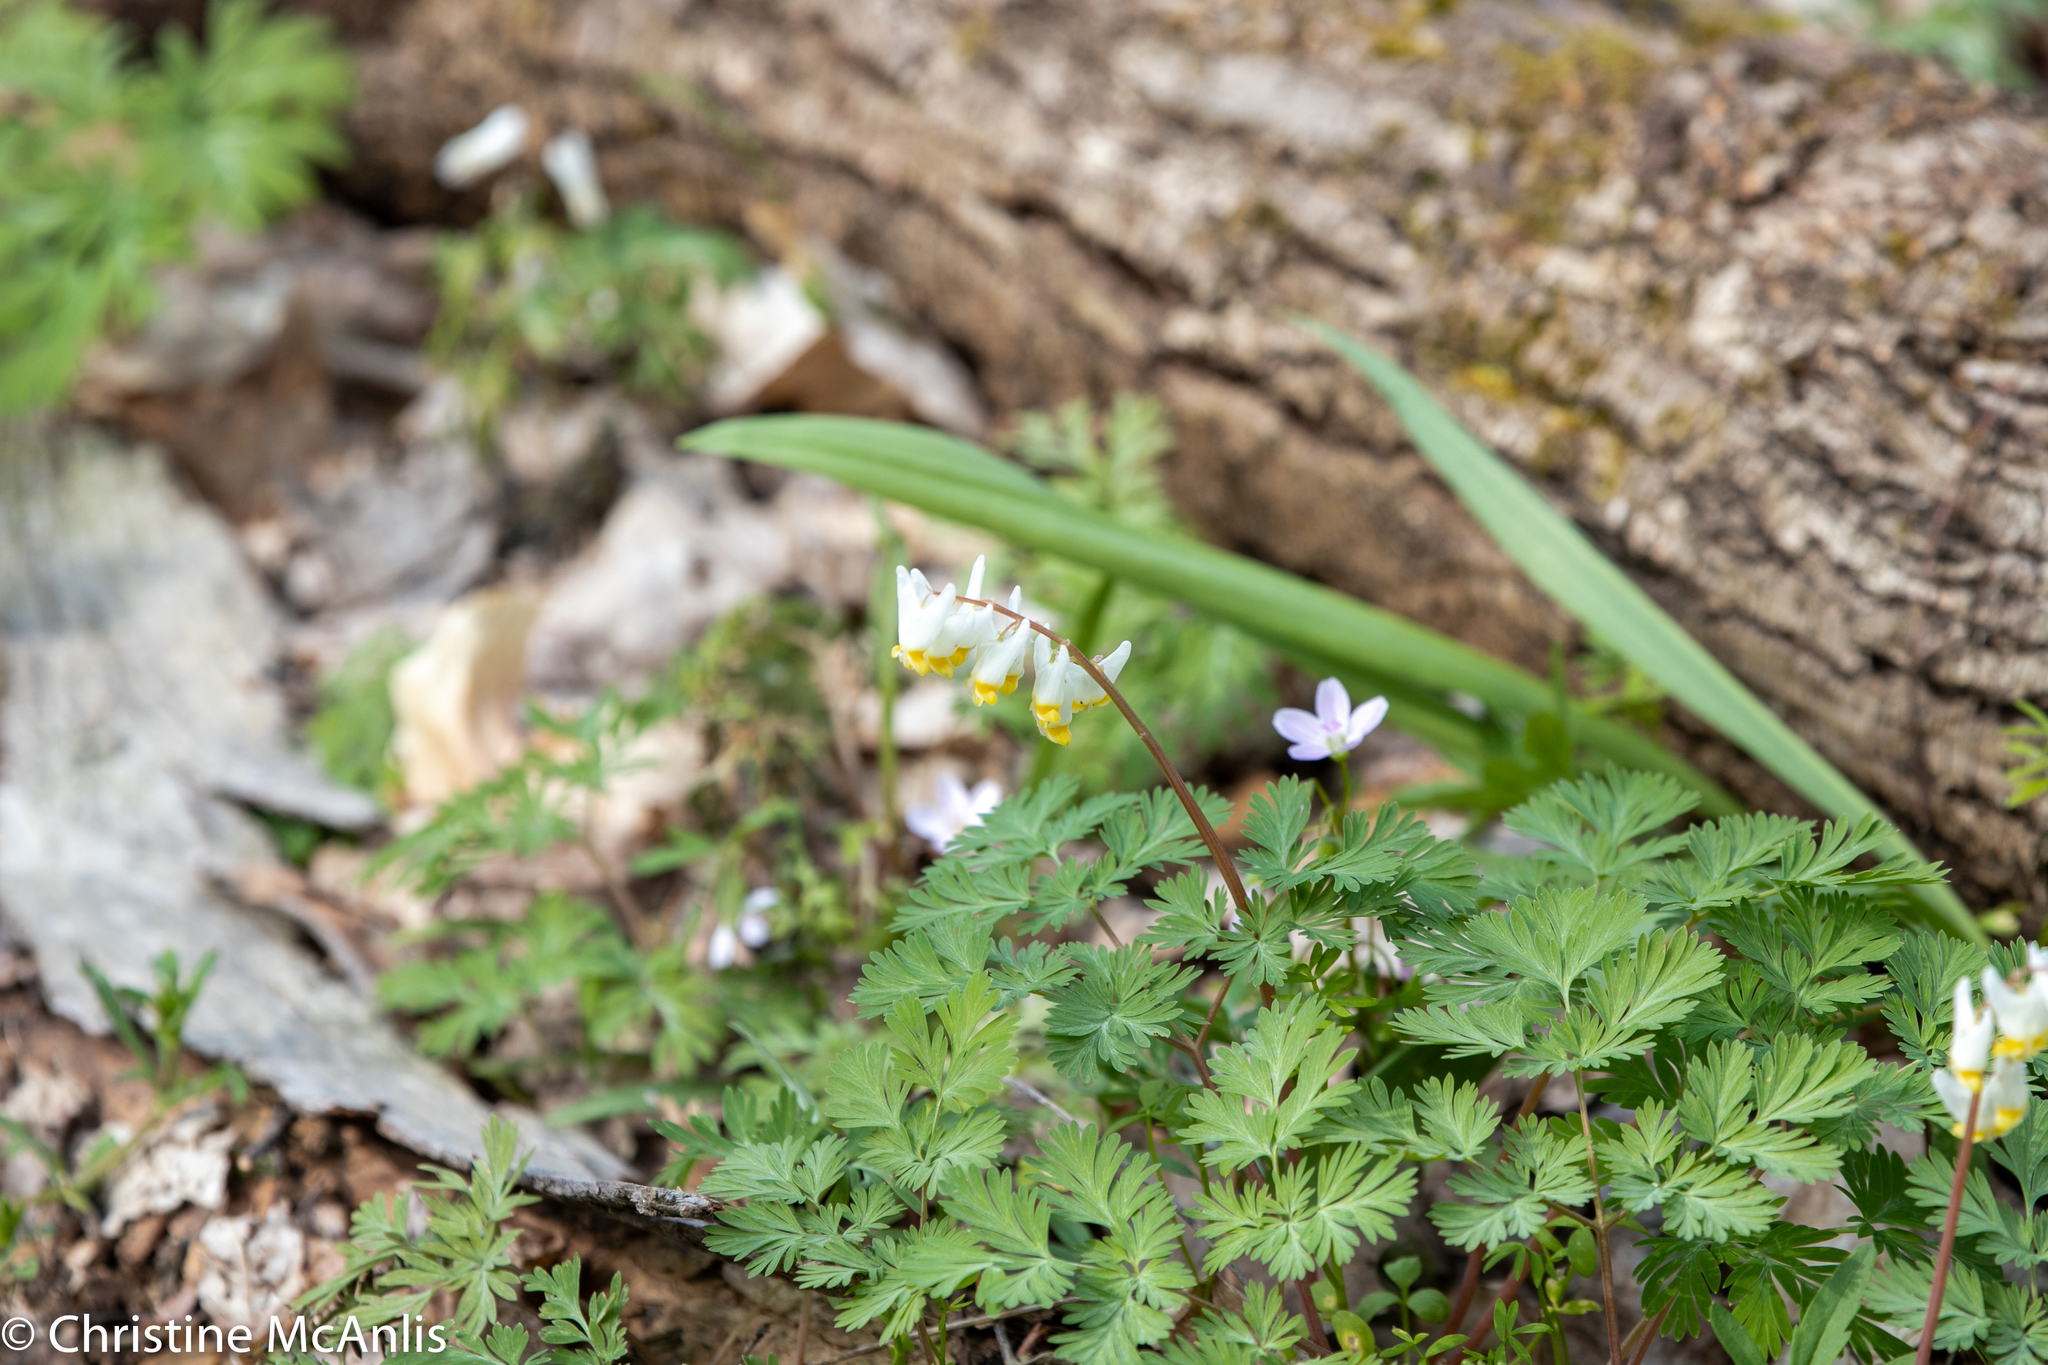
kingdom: Plantae
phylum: Tracheophyta
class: Magnoliopsida
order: Ranunculales
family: Papaveraceae
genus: Dicentra
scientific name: Dicentra cucullaria
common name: Dutchman's breeches
